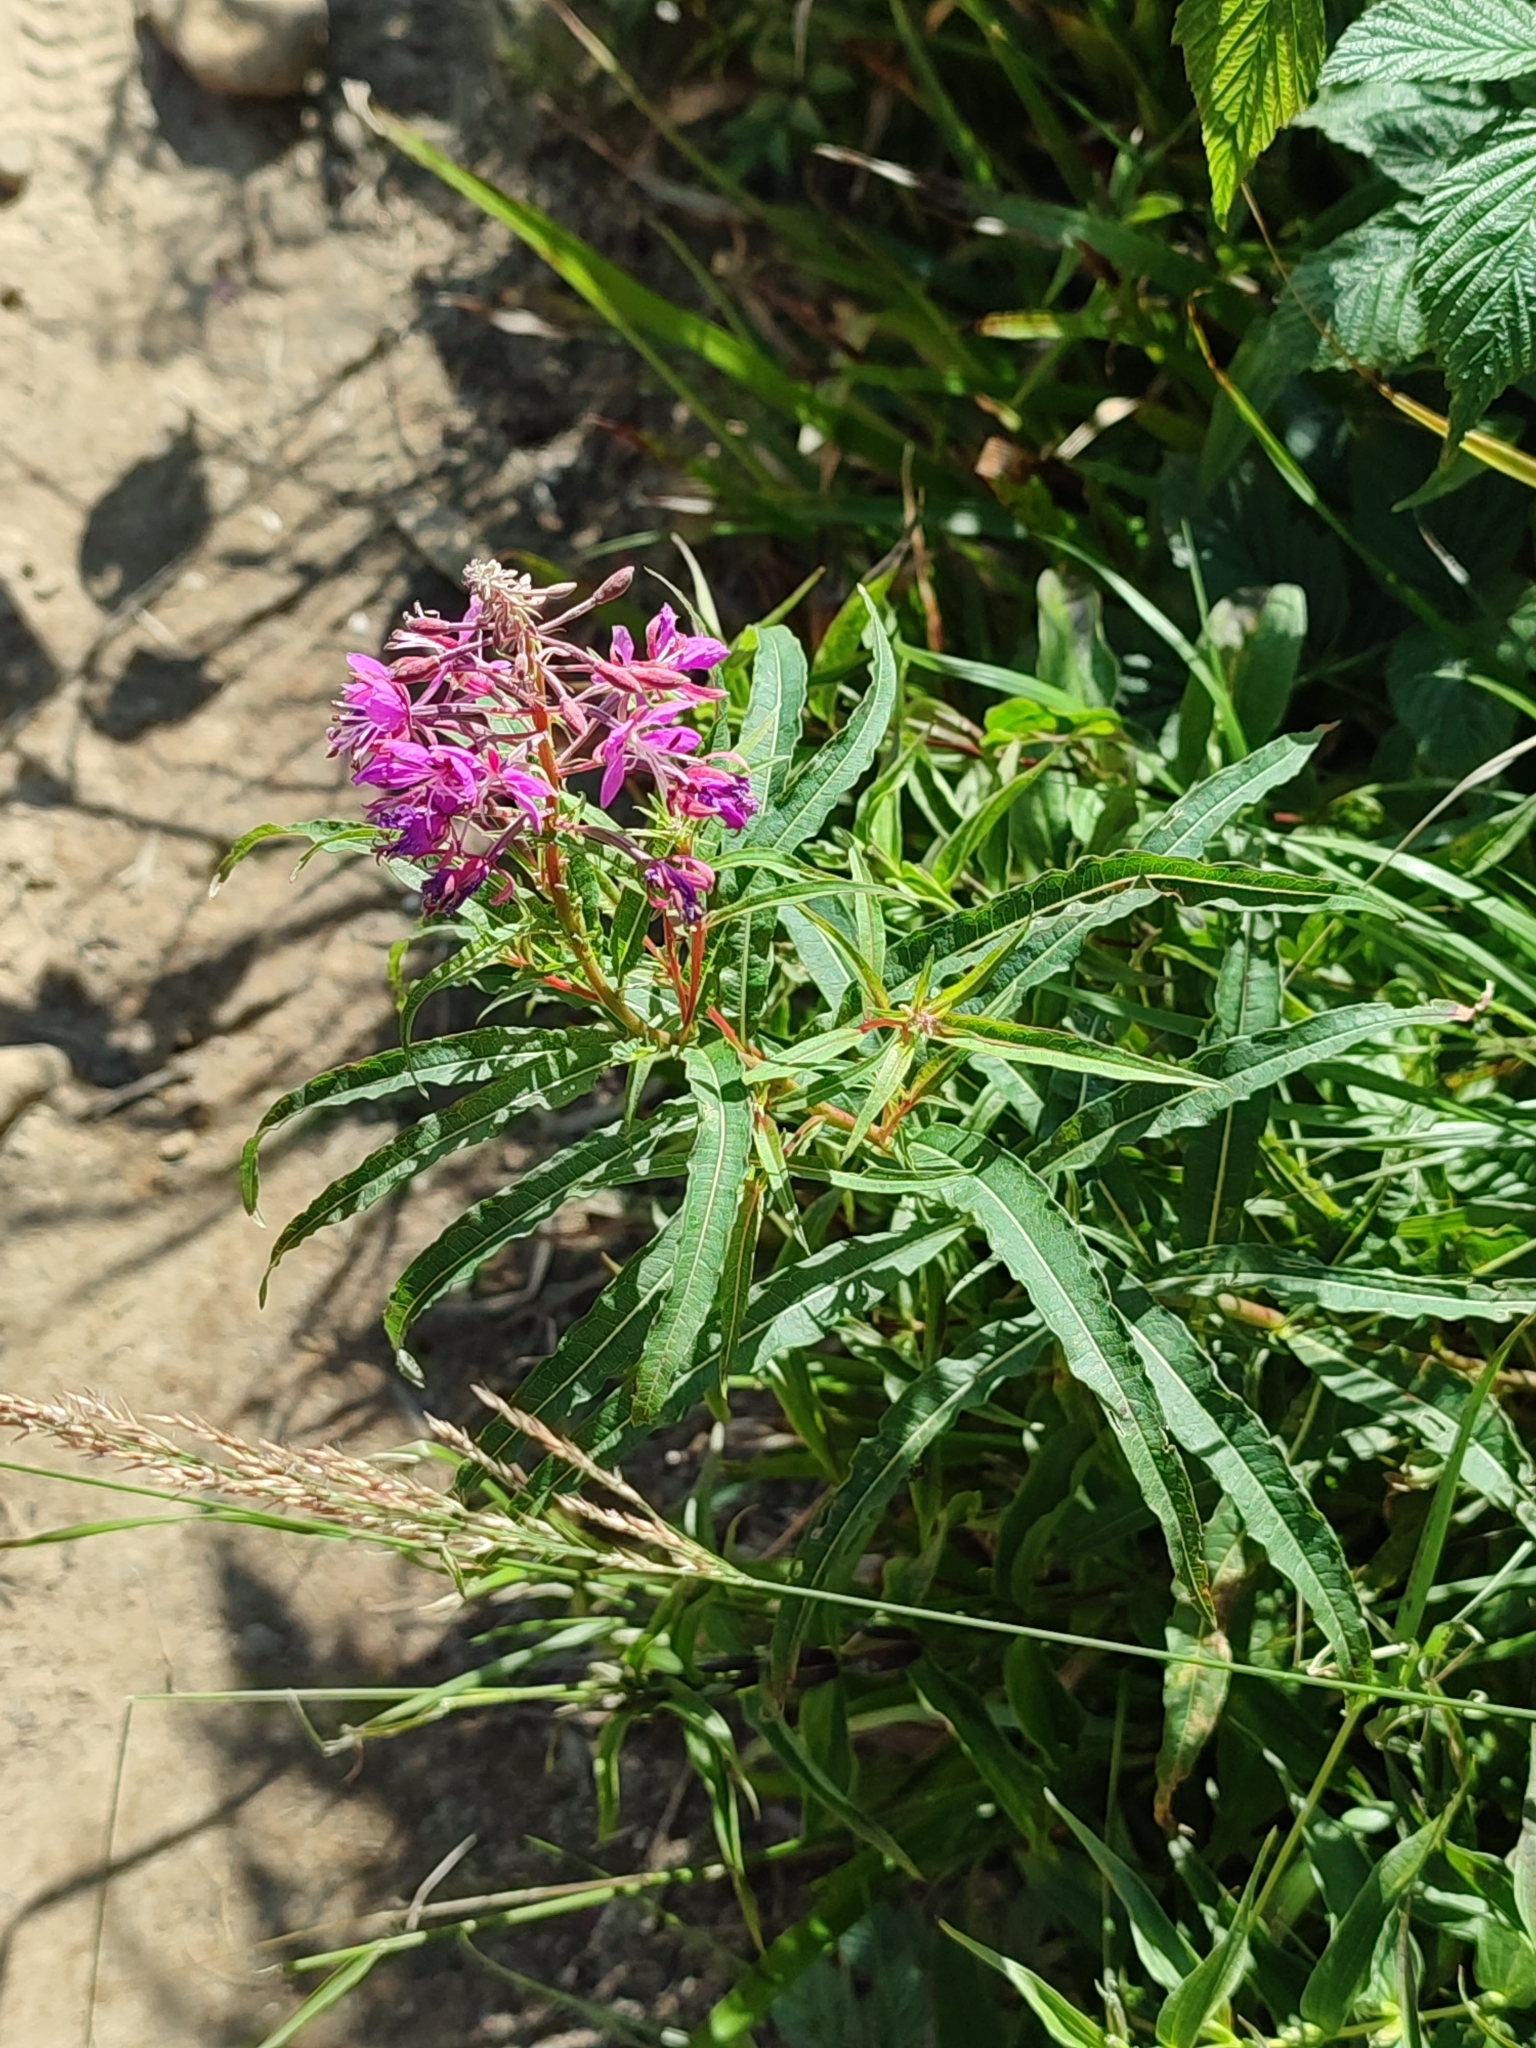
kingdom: Plantae
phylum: Tracheophyta
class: Magnoliopsida
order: Myrtales
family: Onagraceae
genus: Chamaenerion
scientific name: Chamaenerion angustifolium
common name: Fireweed
